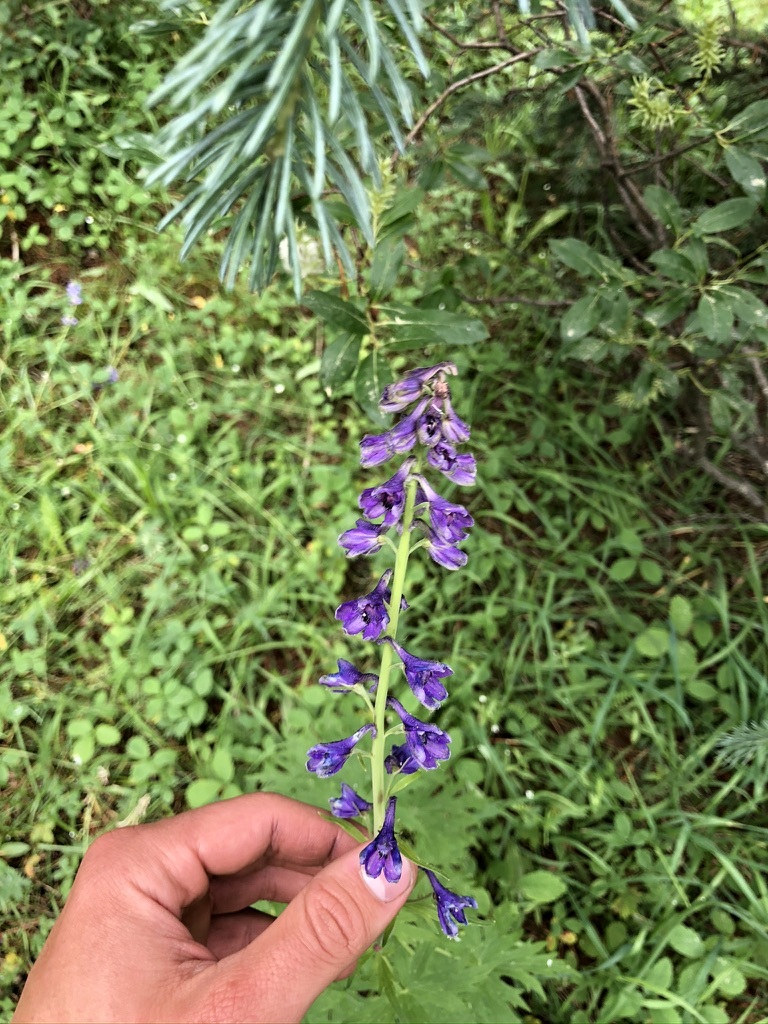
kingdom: Plantae
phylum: Tracheophyta
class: Magnoliopsida
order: Ranunculales
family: Ranunculaceae
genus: Delphinium
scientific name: Delphinium glaucum
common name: Brown's larkspur
